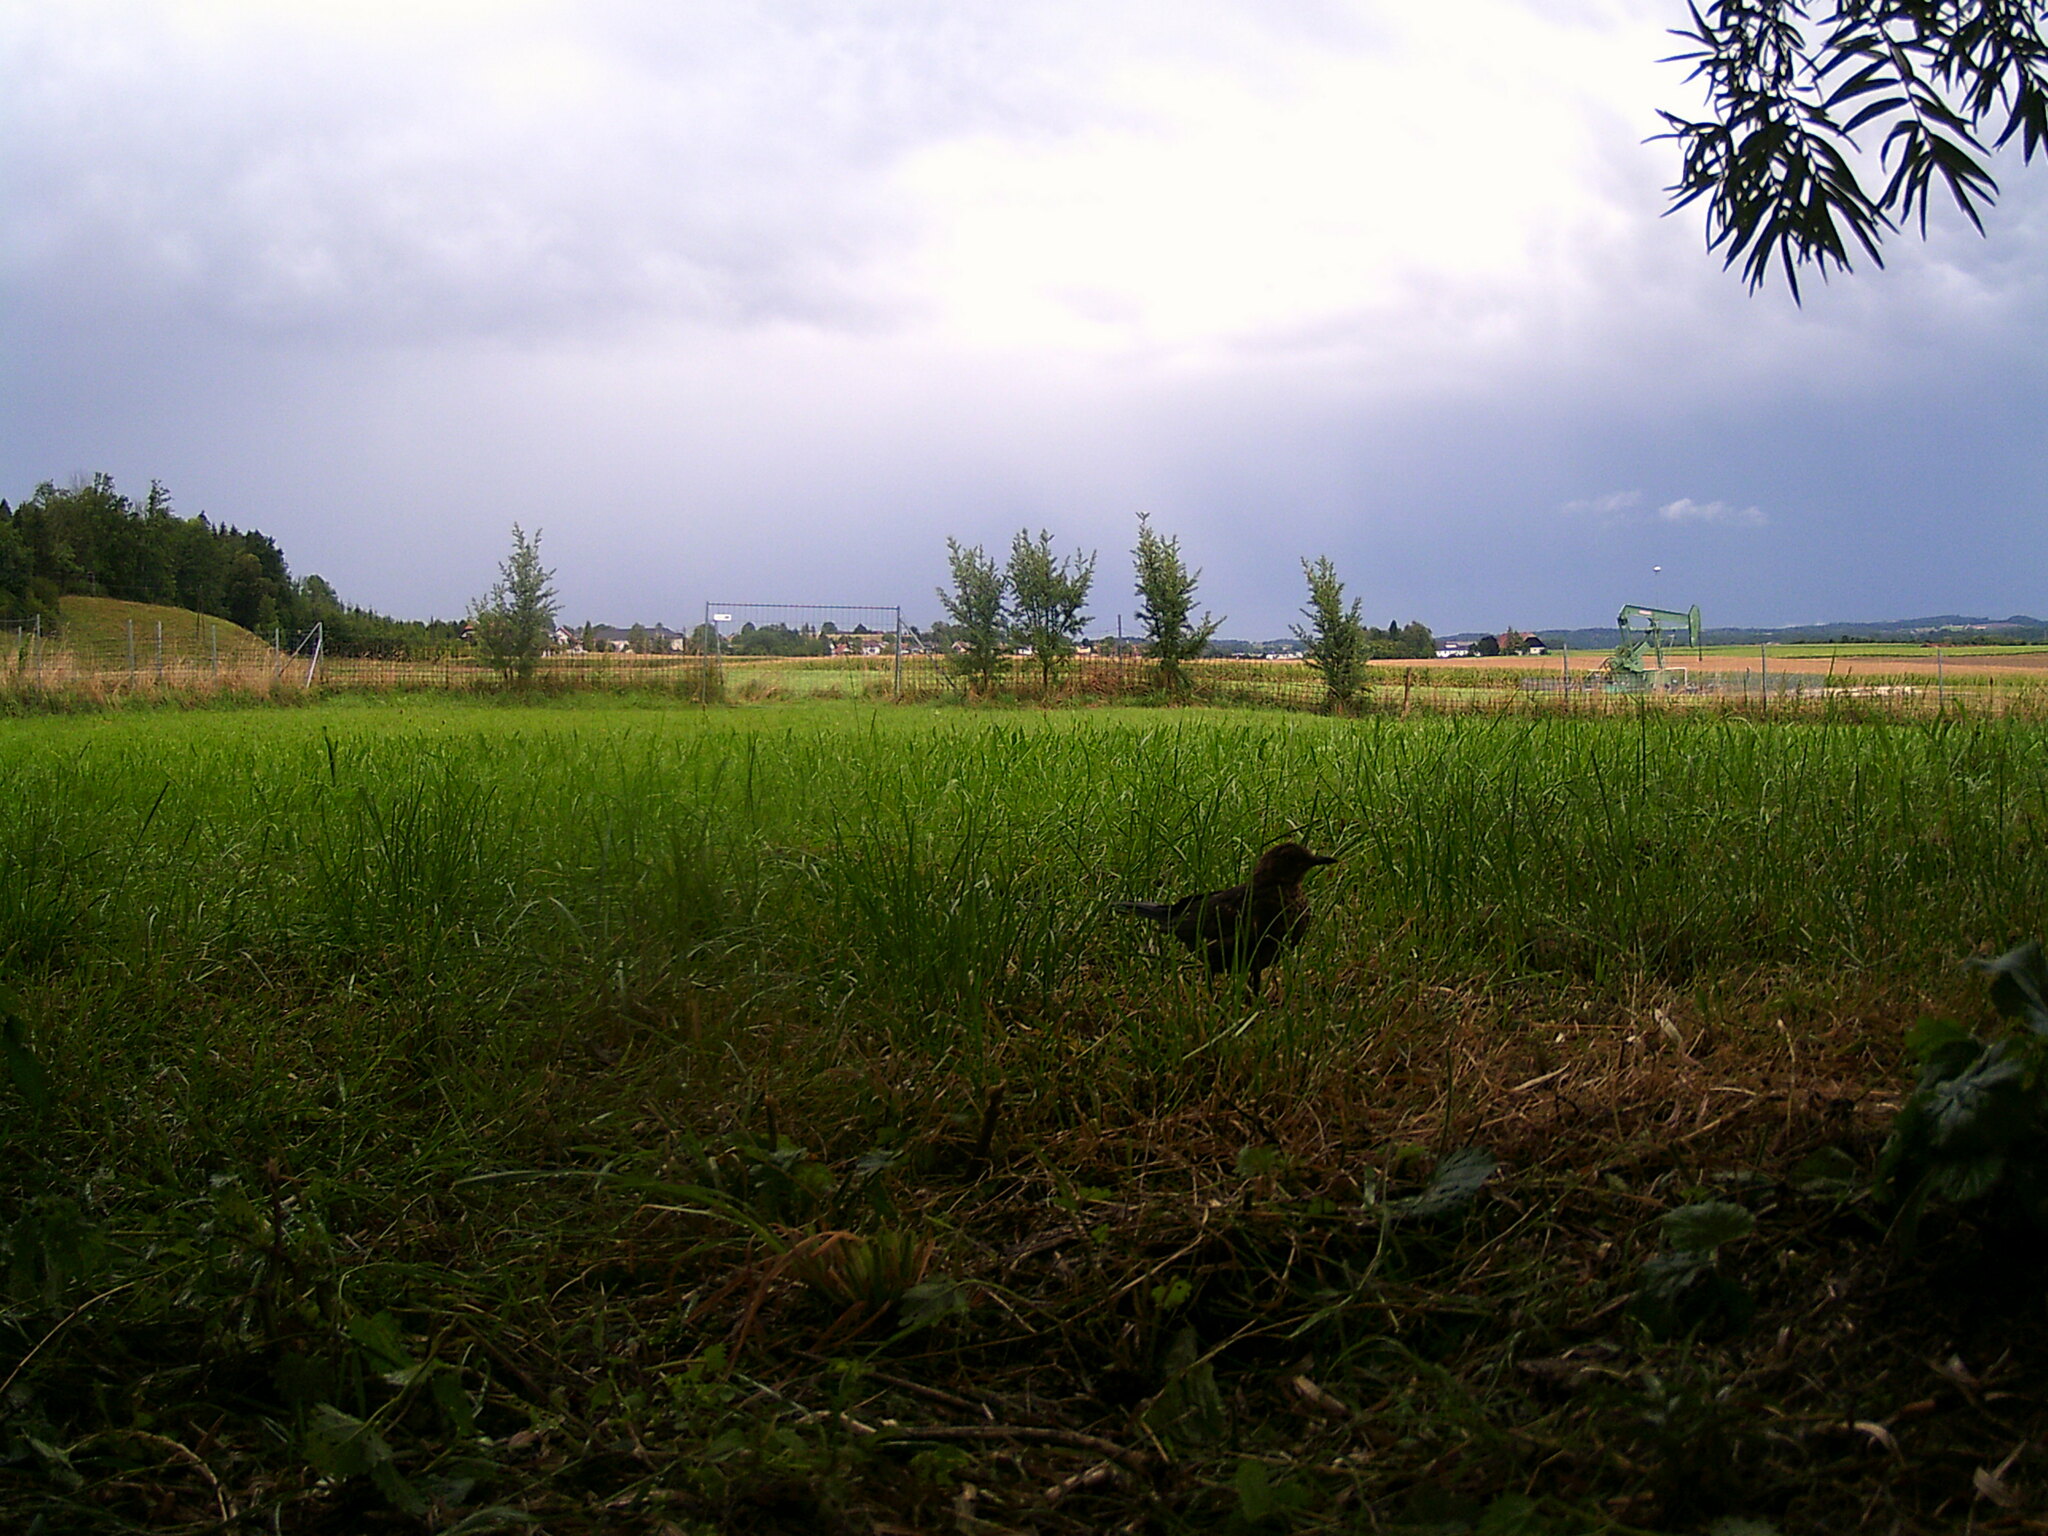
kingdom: Animalia
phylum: Chordata
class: Aves
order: Passeriformes
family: Turdidae
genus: Turdus
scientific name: Turdus merula
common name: Common blackbird
